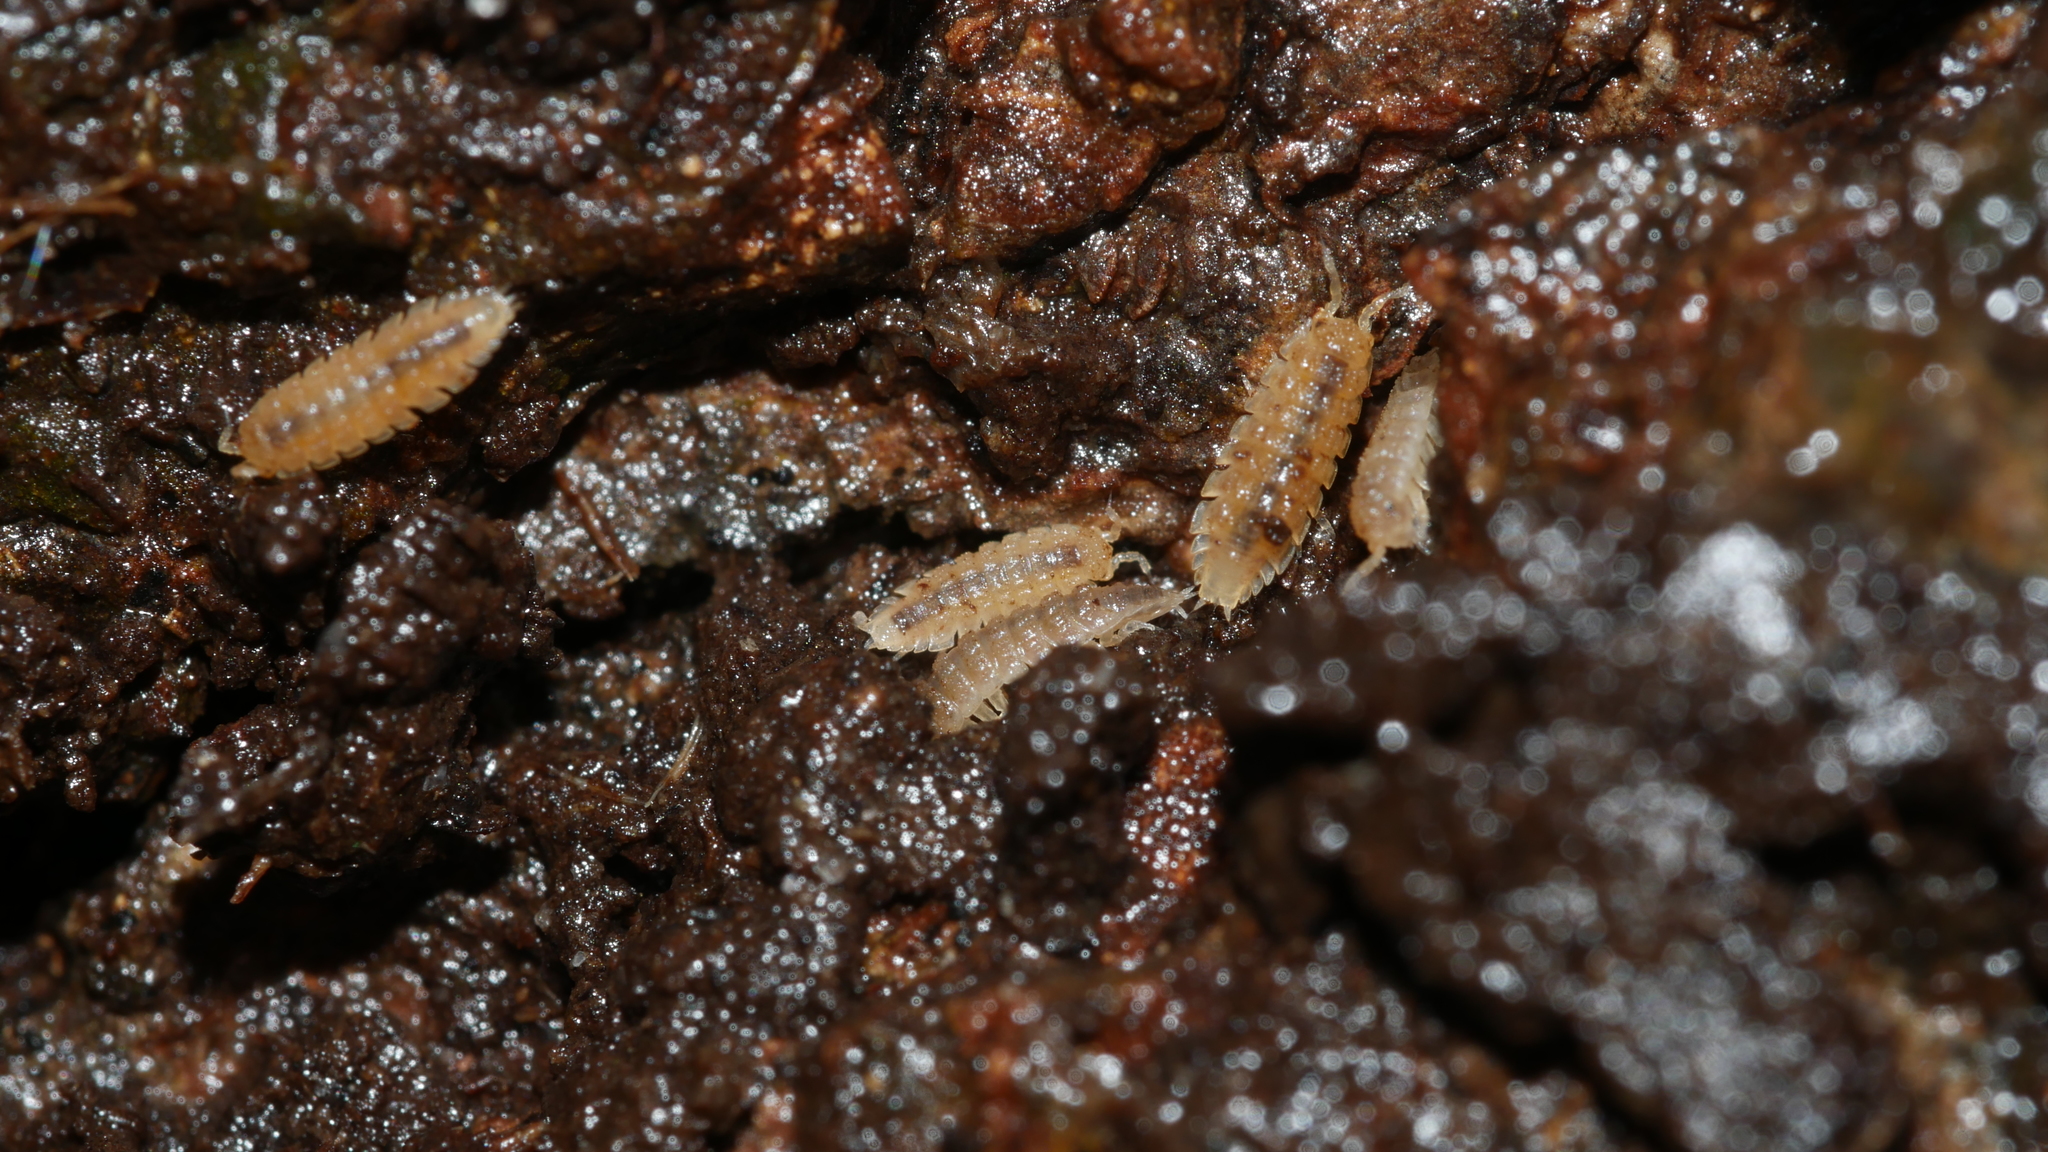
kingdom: Animalia
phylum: Arthropoda
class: Malacostraca
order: Isopoda
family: Trichoniscidae
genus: Haplophthalmus
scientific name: Haplophthalmus danicus
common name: Pillbug
